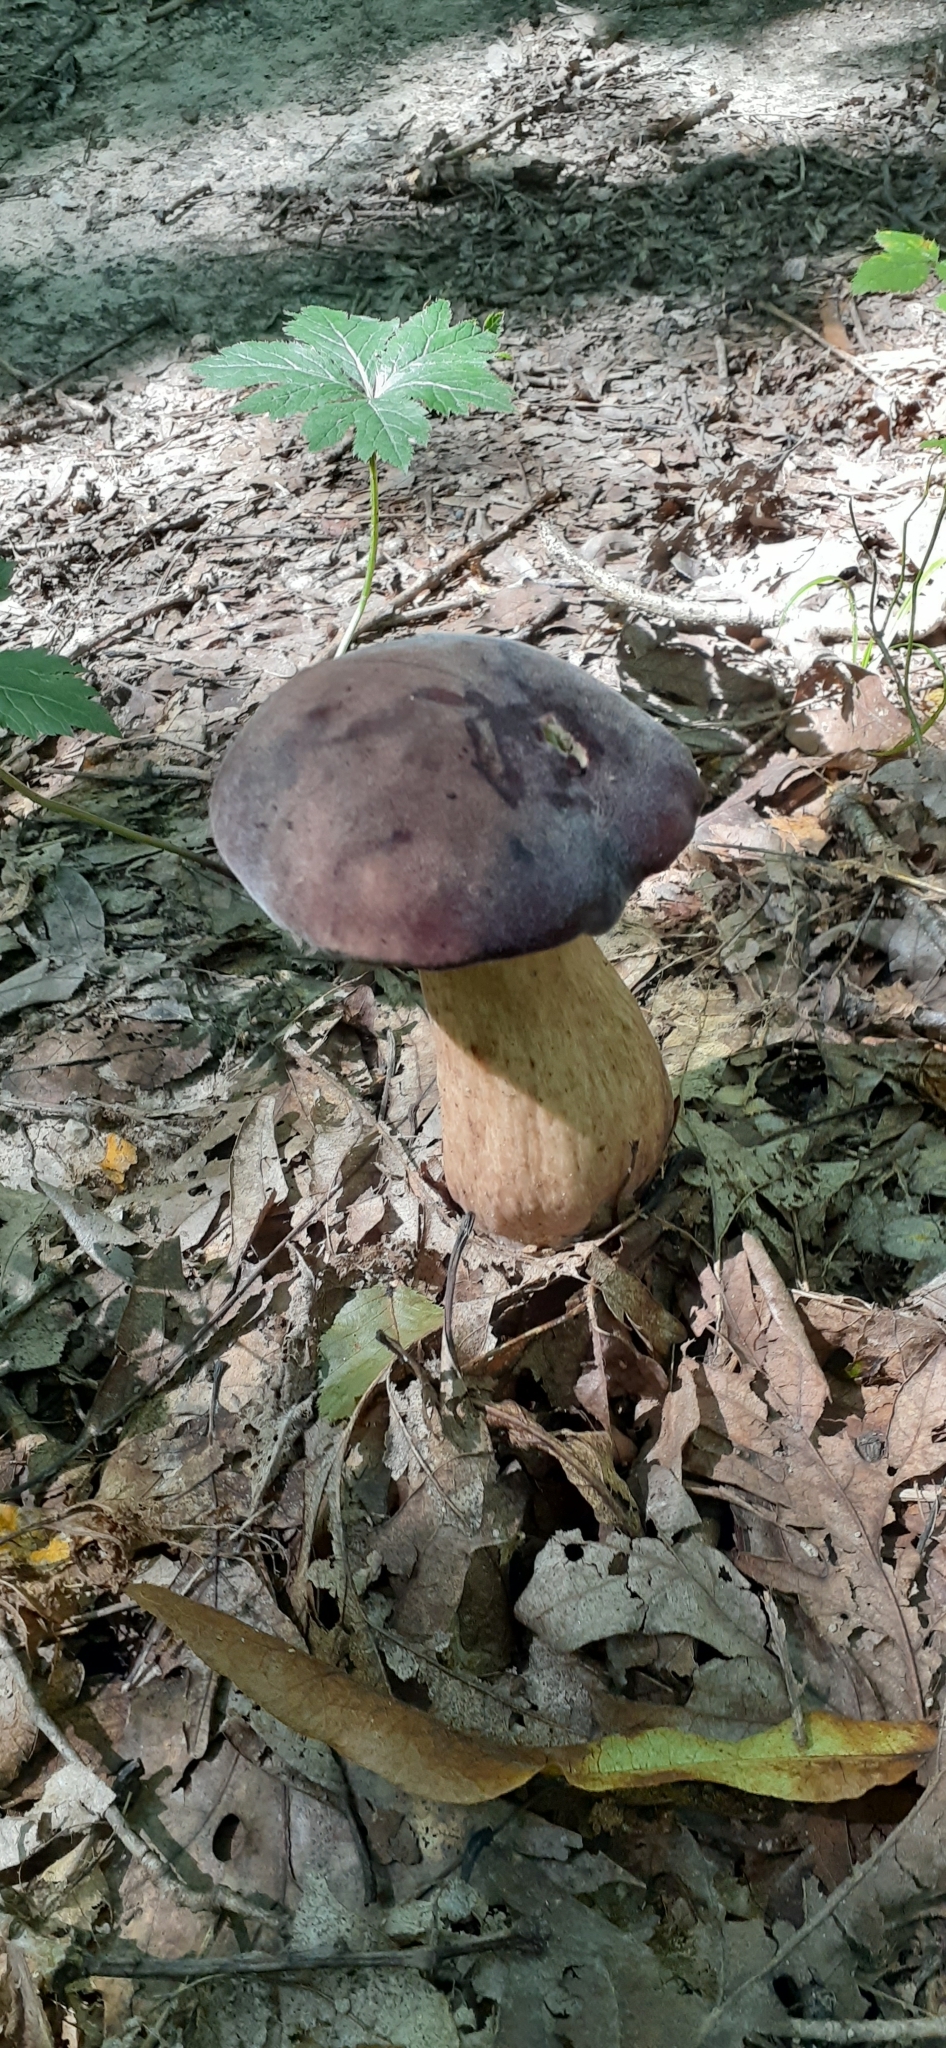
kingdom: Fungi
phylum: Basidiomycota
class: Agaricomycetes
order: Boletales
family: Boletaceae
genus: Tylopilus
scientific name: Tylopilus rubrobrunneus
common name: Reddish brown bitter bolete
